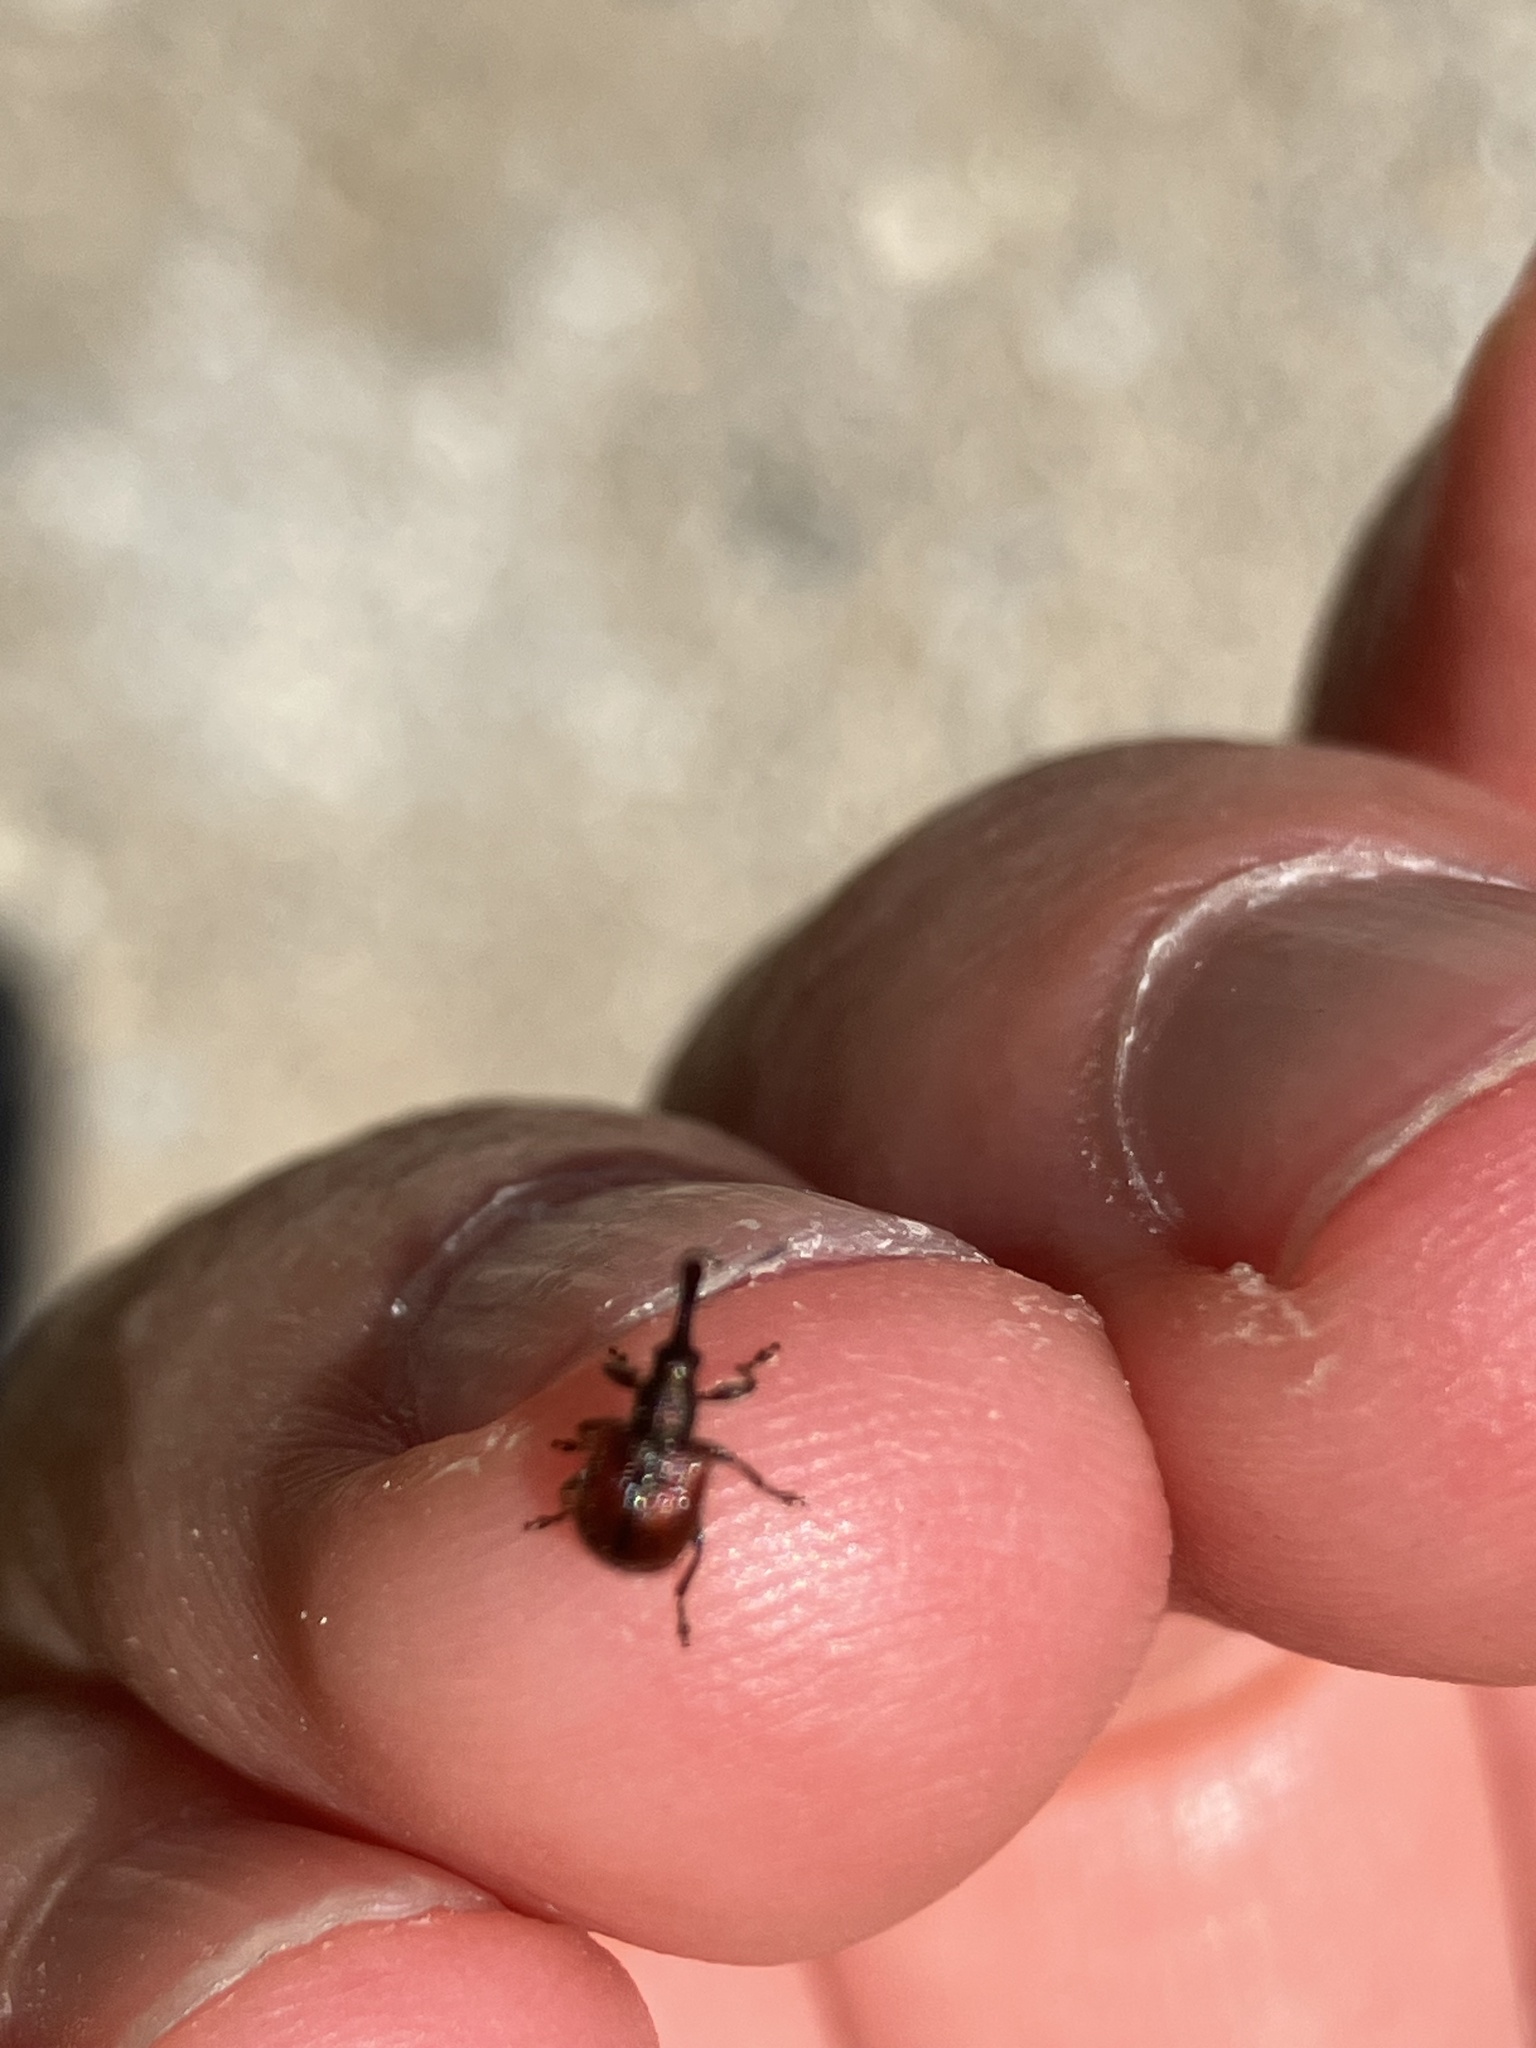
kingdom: Animalia
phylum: Arthropoda
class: Insecta
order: Coleoptera
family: Rhynchitidae
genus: Tatianaerhynchites
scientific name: Tatianaerhynchites aequatus
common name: Apple fruit rhynchites
